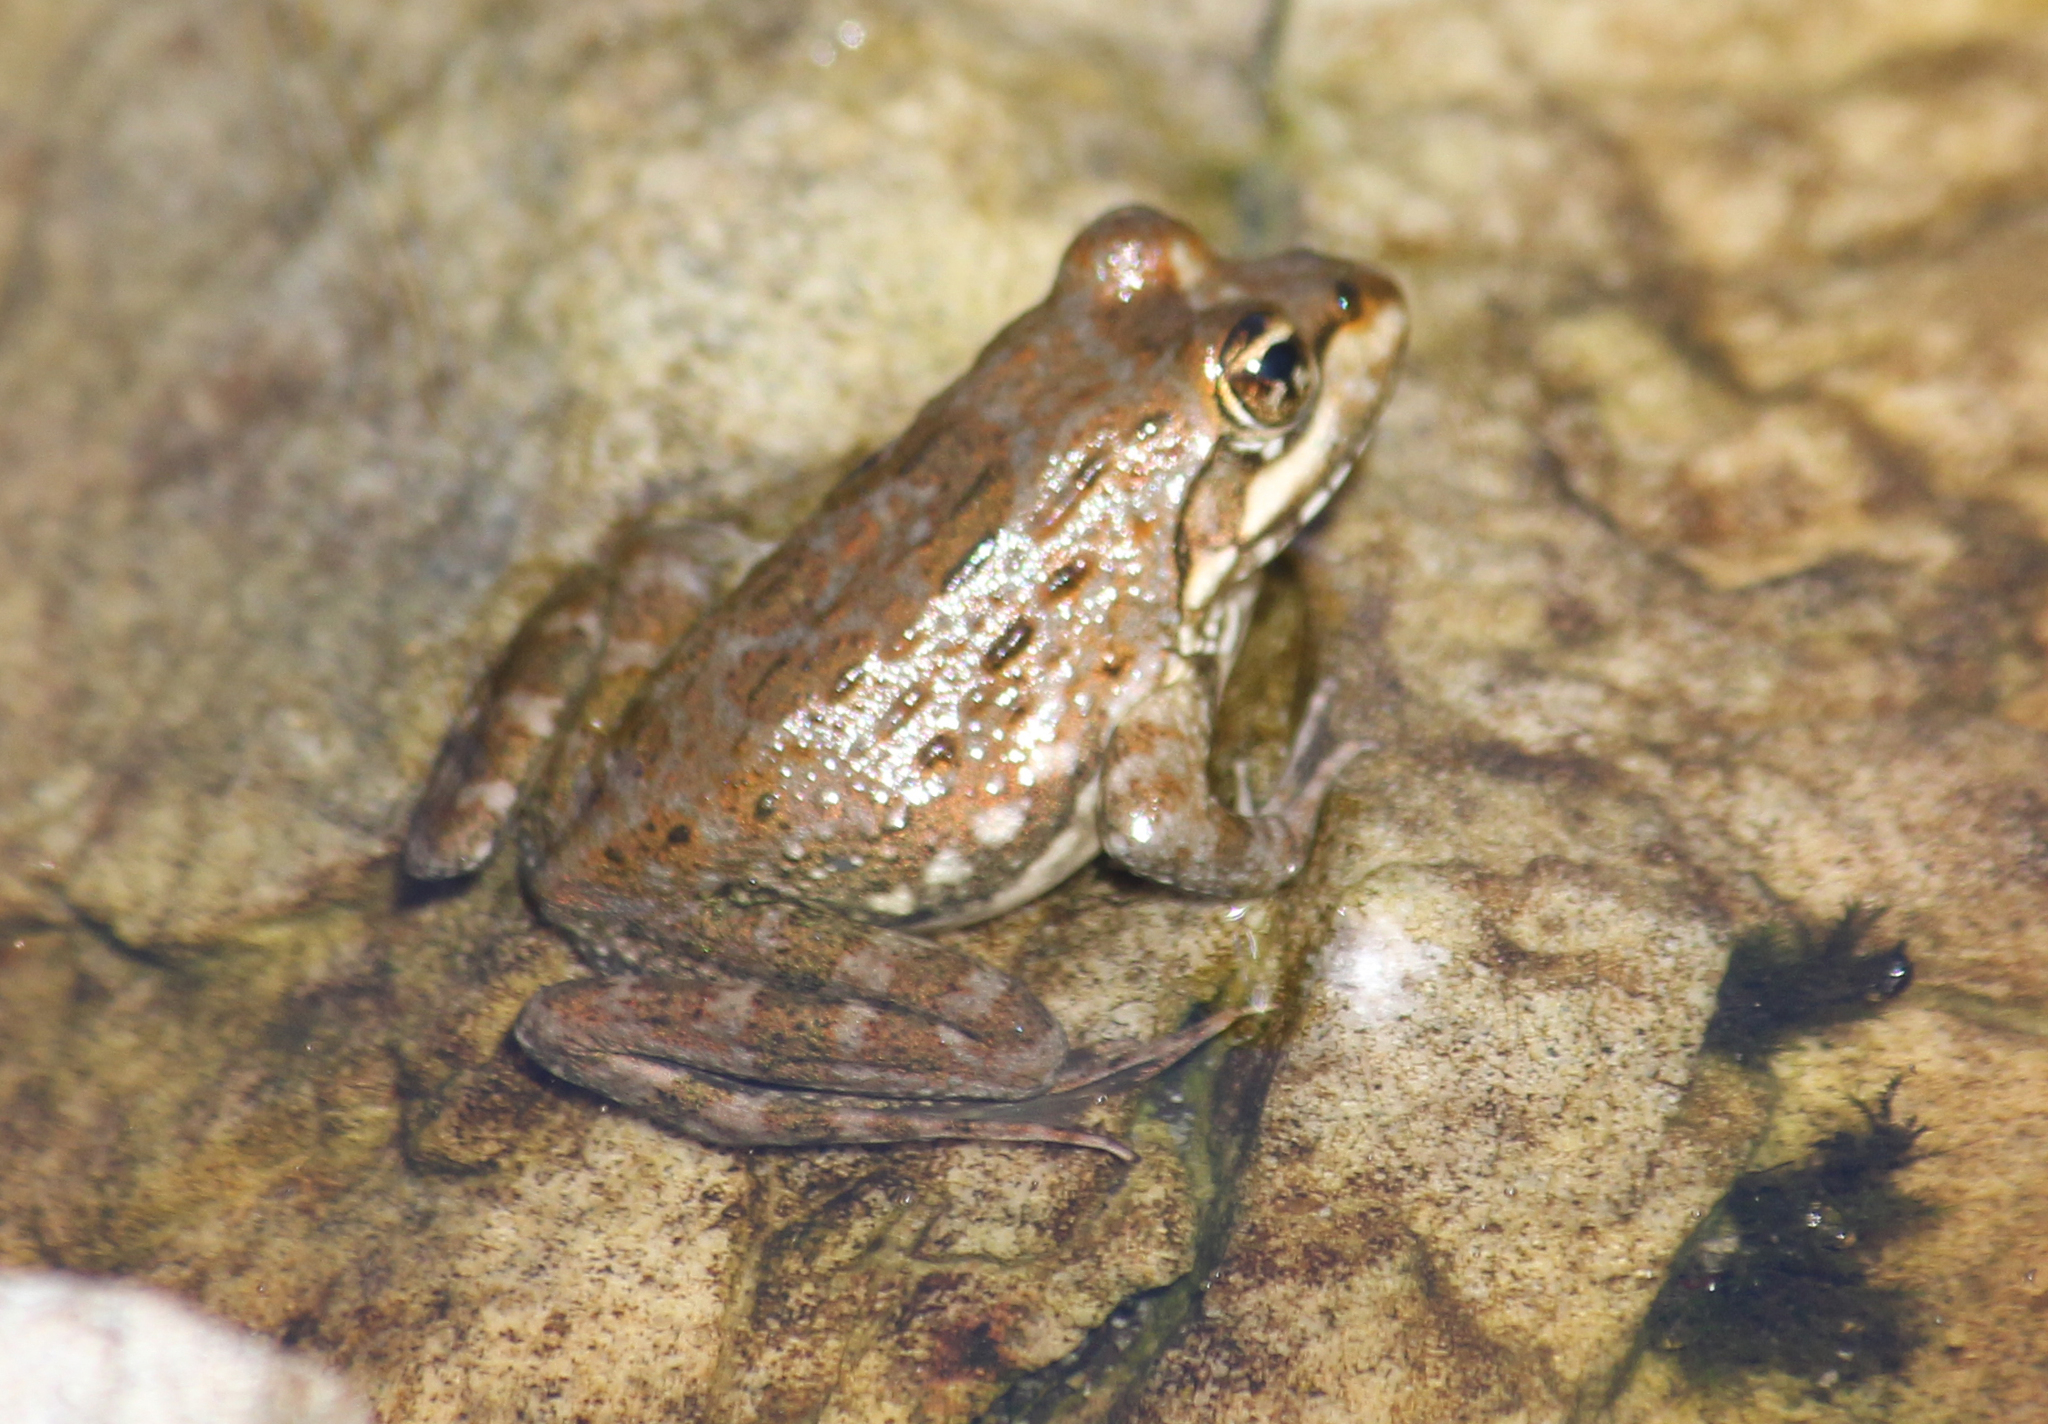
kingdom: Animalia
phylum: Chordata
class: Amphibia
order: Anura
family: Pyxicephalidae
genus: Amietia
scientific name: Amietia fuscigula
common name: Cape rana
